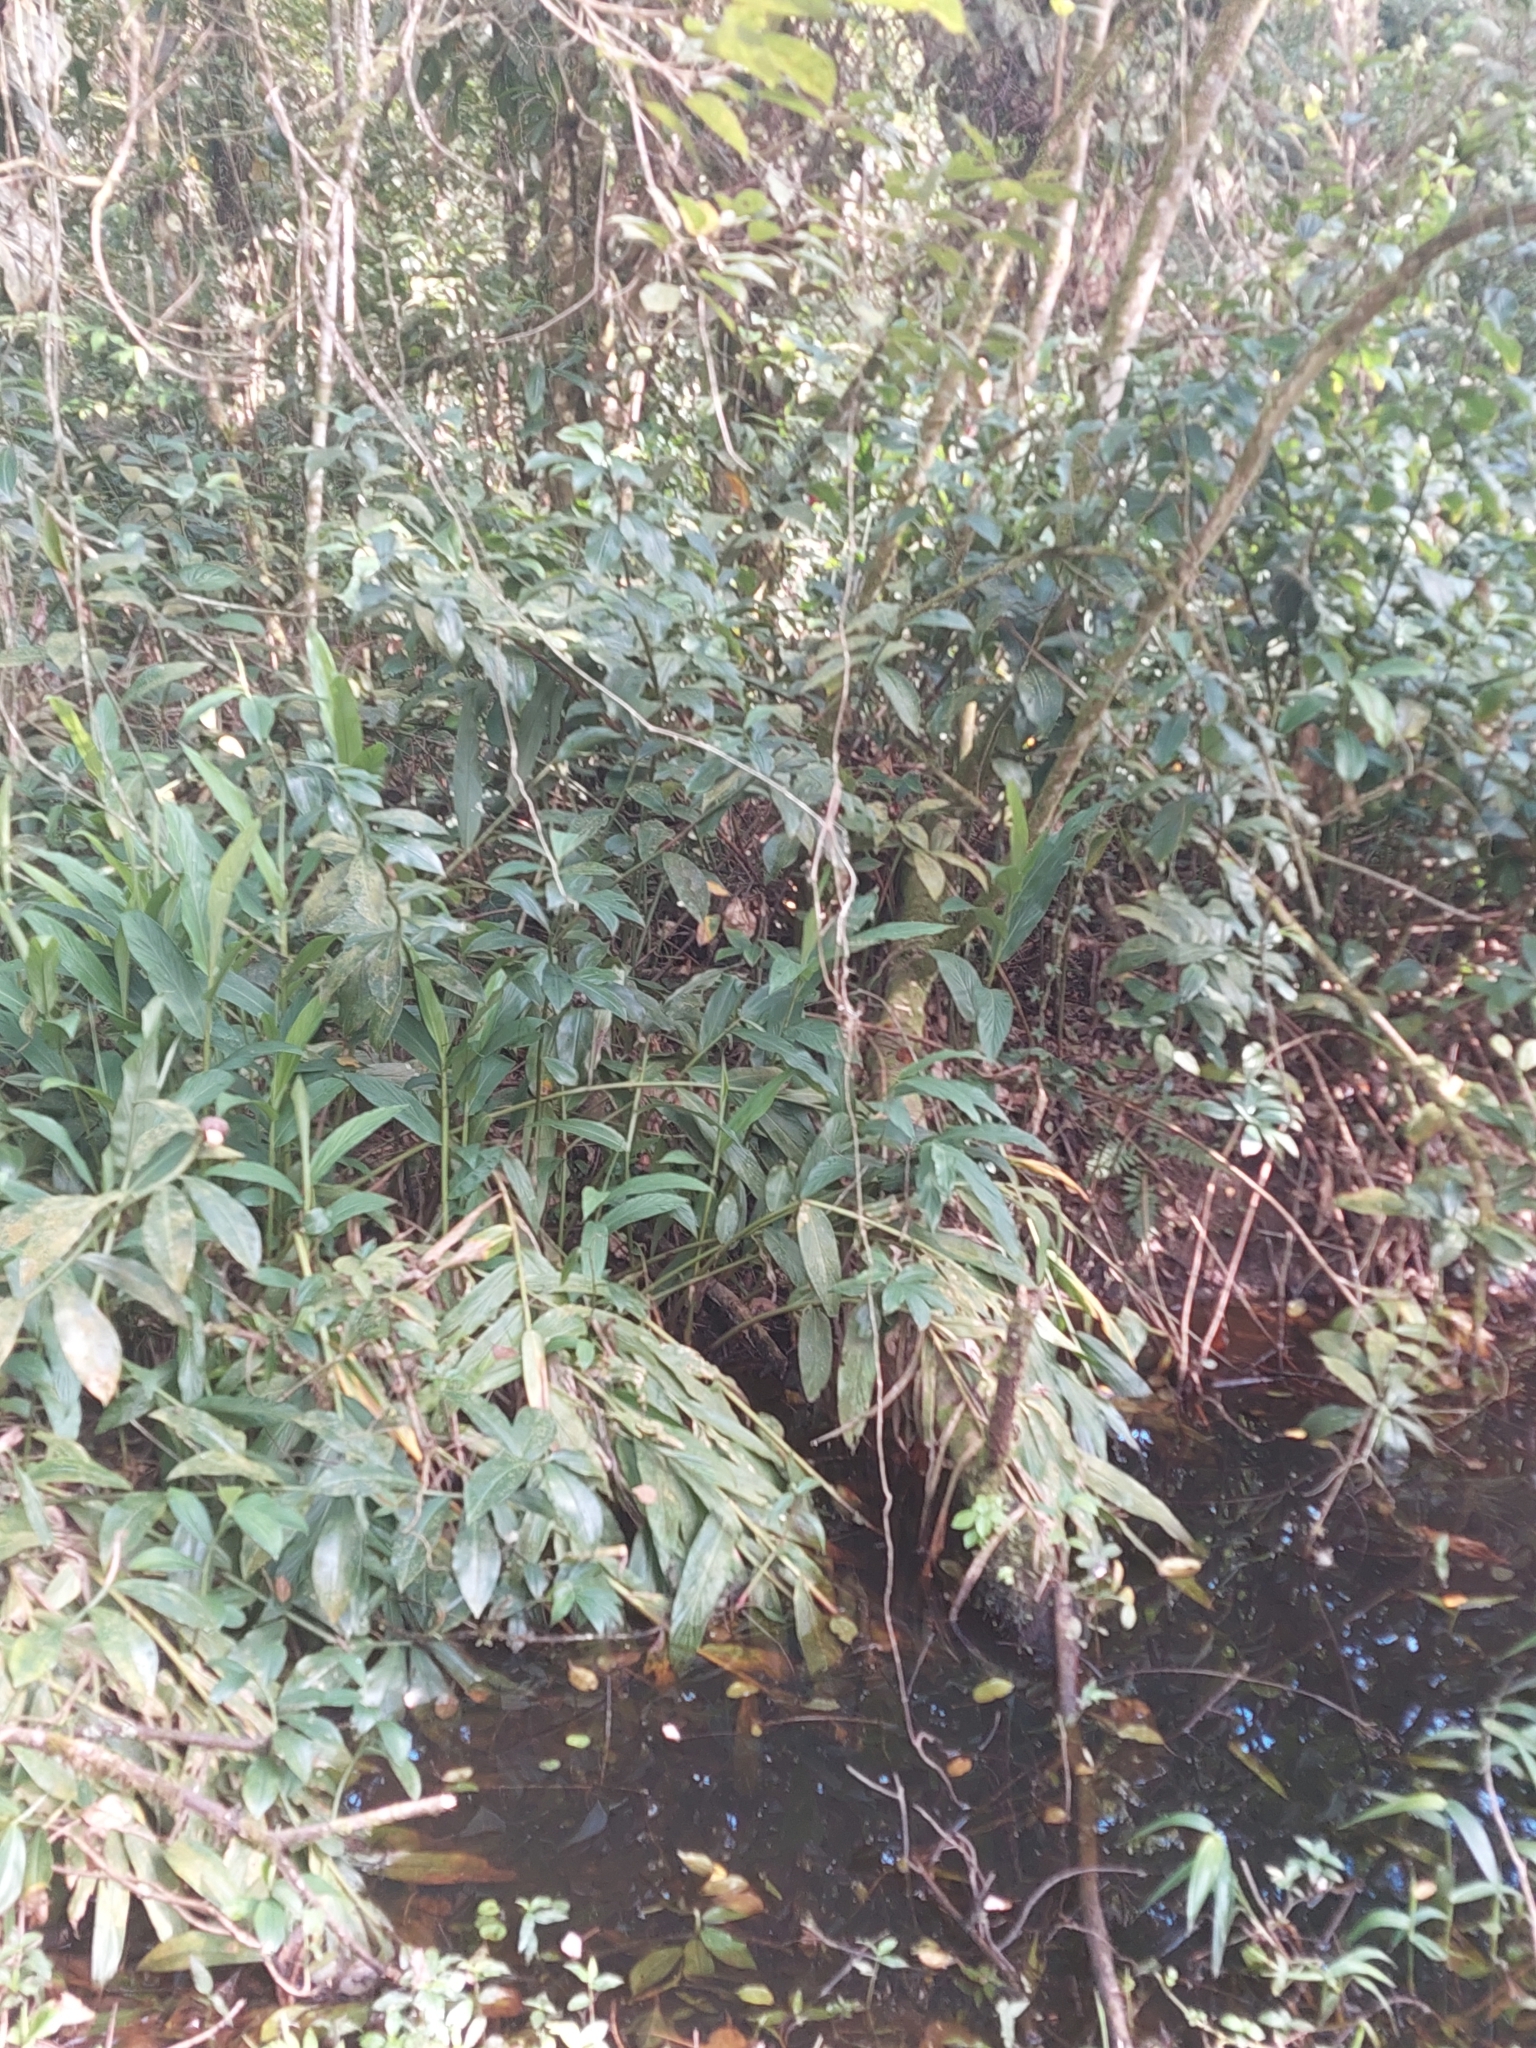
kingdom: Plantae
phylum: Tracheophyta
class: Liliopsida
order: Zingiberales
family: Zingiberaceae
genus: Hedychium
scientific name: Hedychium coronarium
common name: White garland-lily
